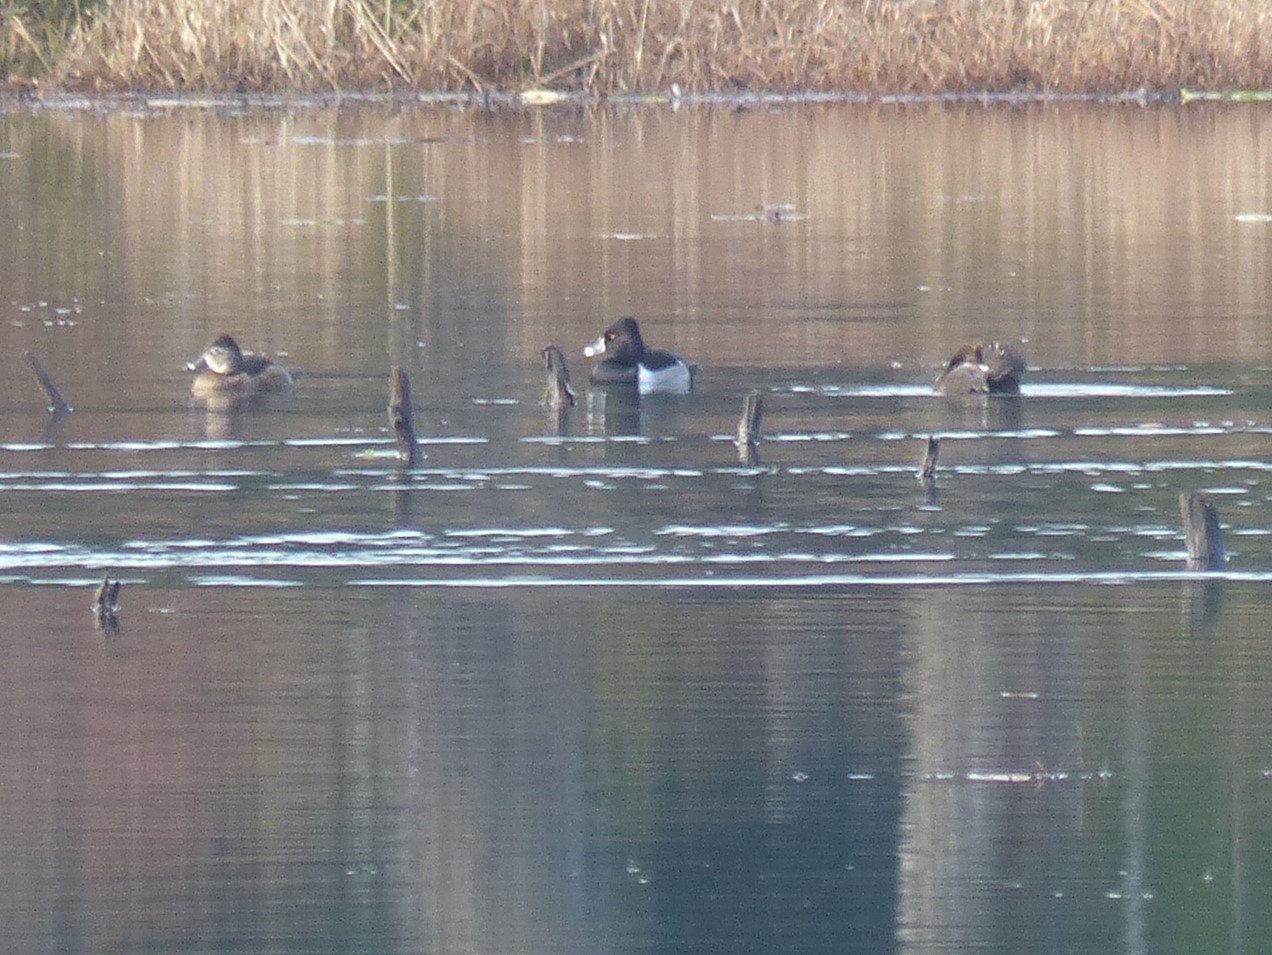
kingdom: Animalia
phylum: Chordata
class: Aves
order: Anseriformes
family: Anatidae
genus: Aythya
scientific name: Aythya collaris
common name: Ring-necked duck
